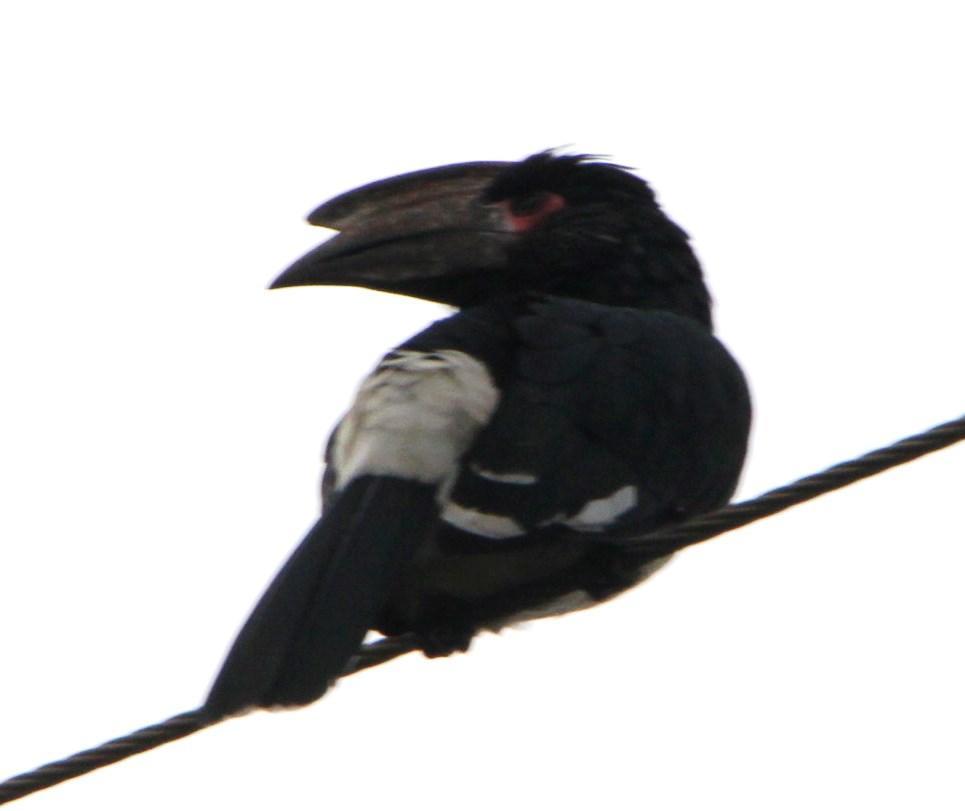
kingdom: Animalia
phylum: Chordata
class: Aves
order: Bucerotiformes
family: Bucerotidae
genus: Bycanistes
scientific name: Bycanistes bucinator
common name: Trumpeter hornbill
